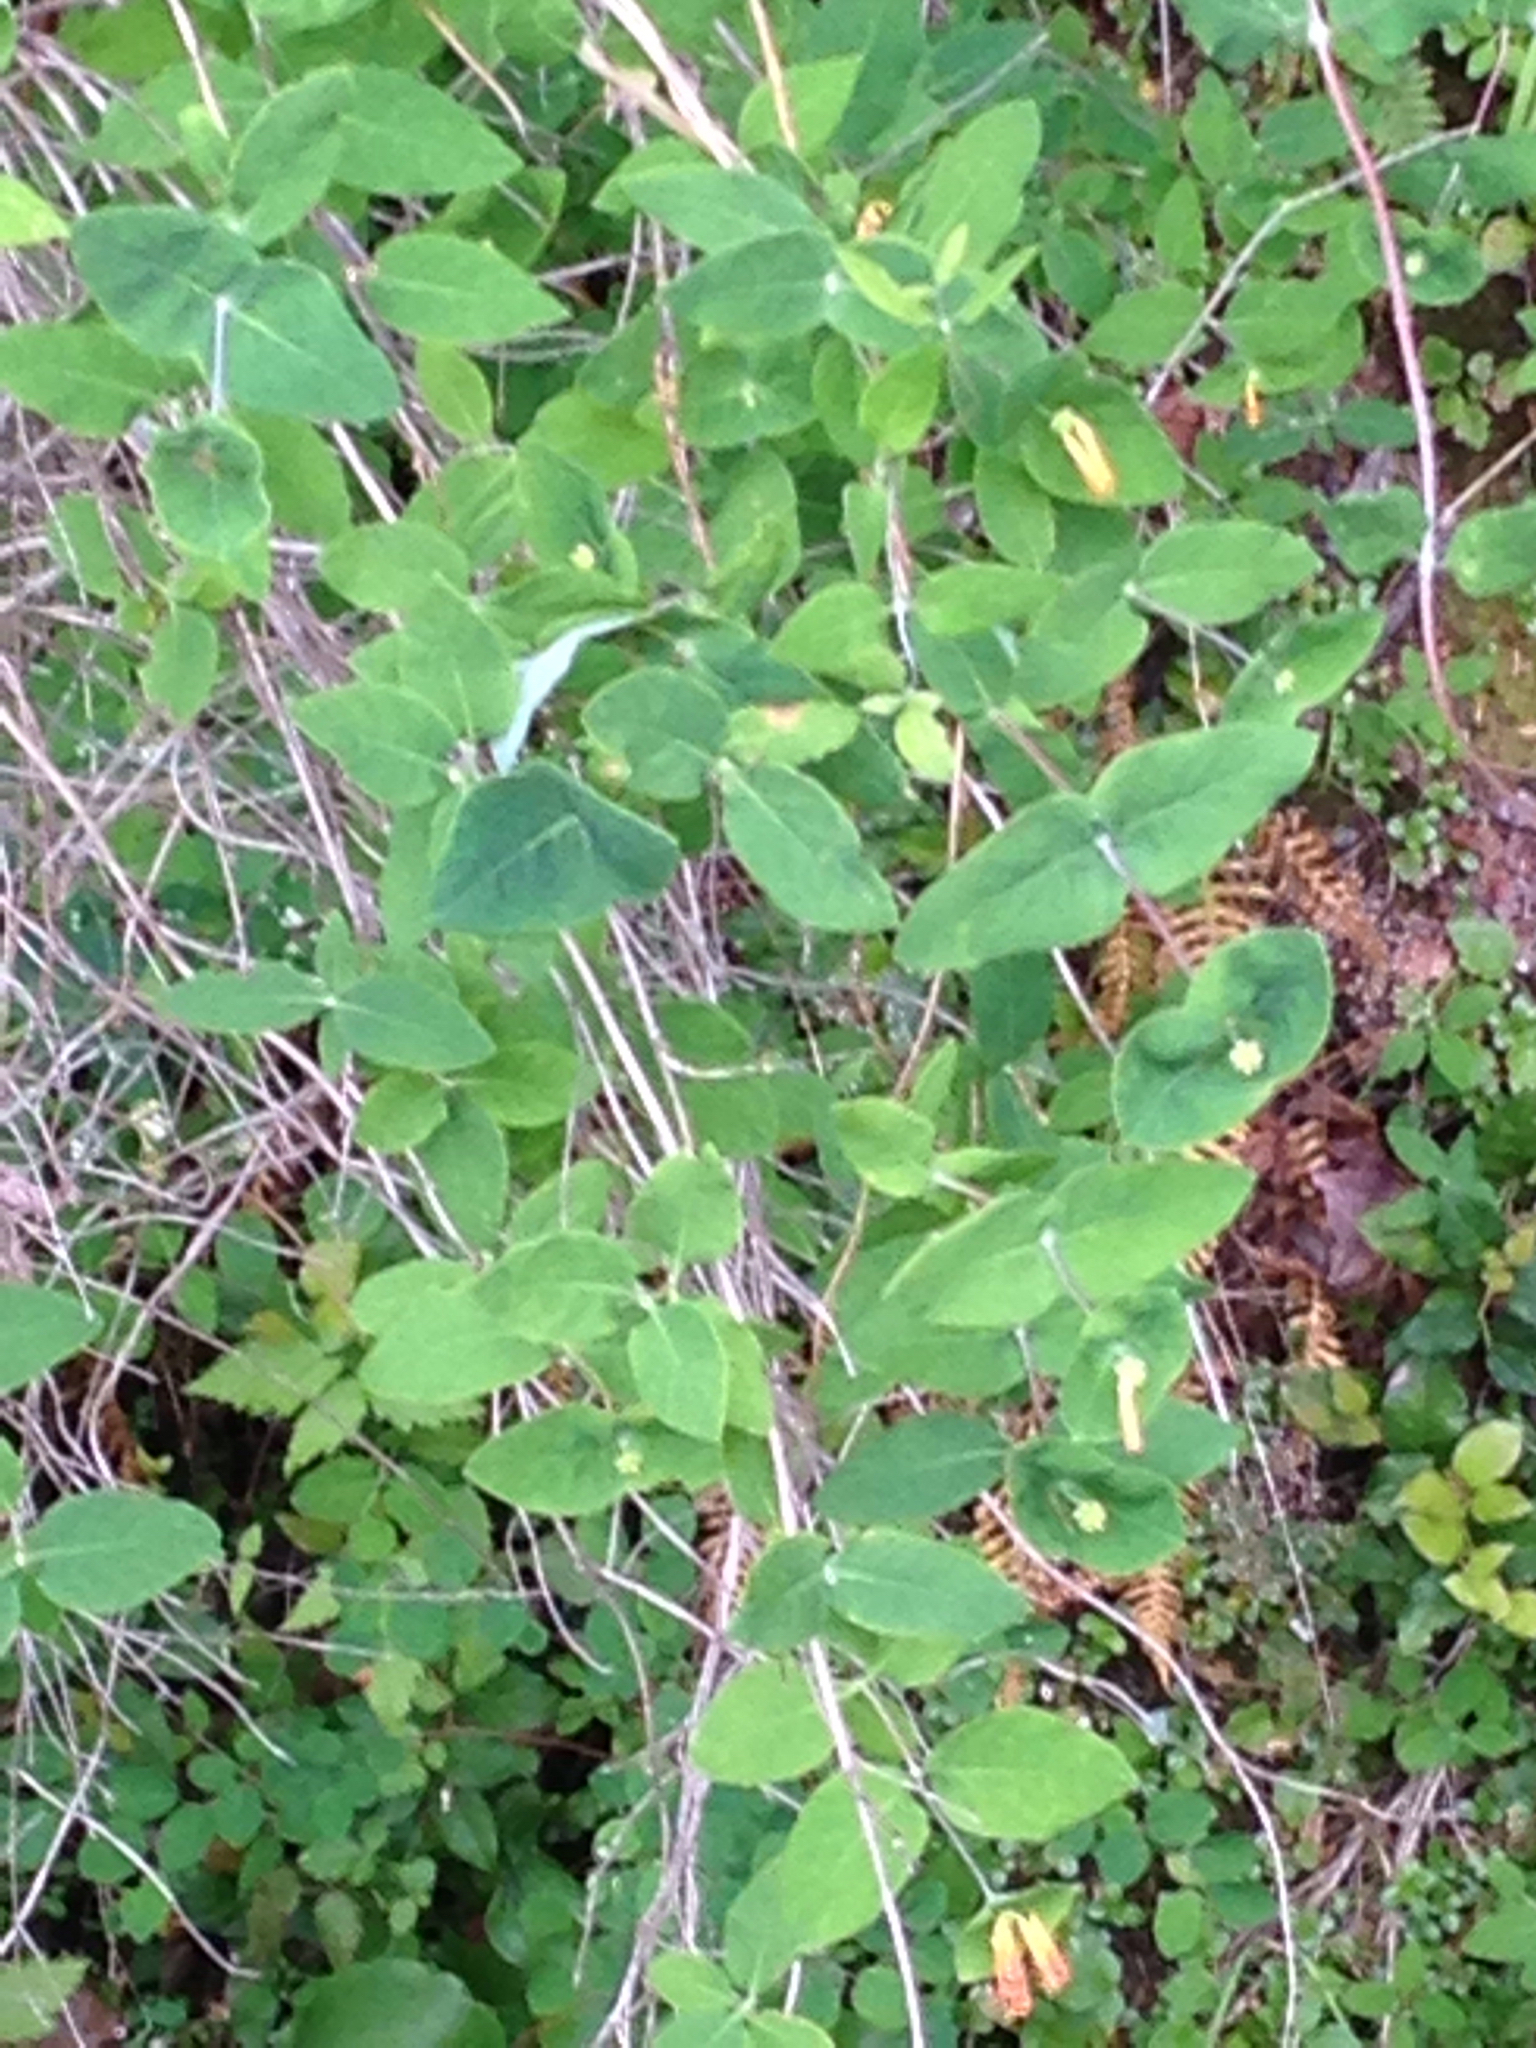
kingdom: Plantae
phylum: Tracheophyta
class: Magnoliopsida
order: Dipsacales
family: Caprifoliaceae
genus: Lonicera
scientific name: Lonicera ciliosa
